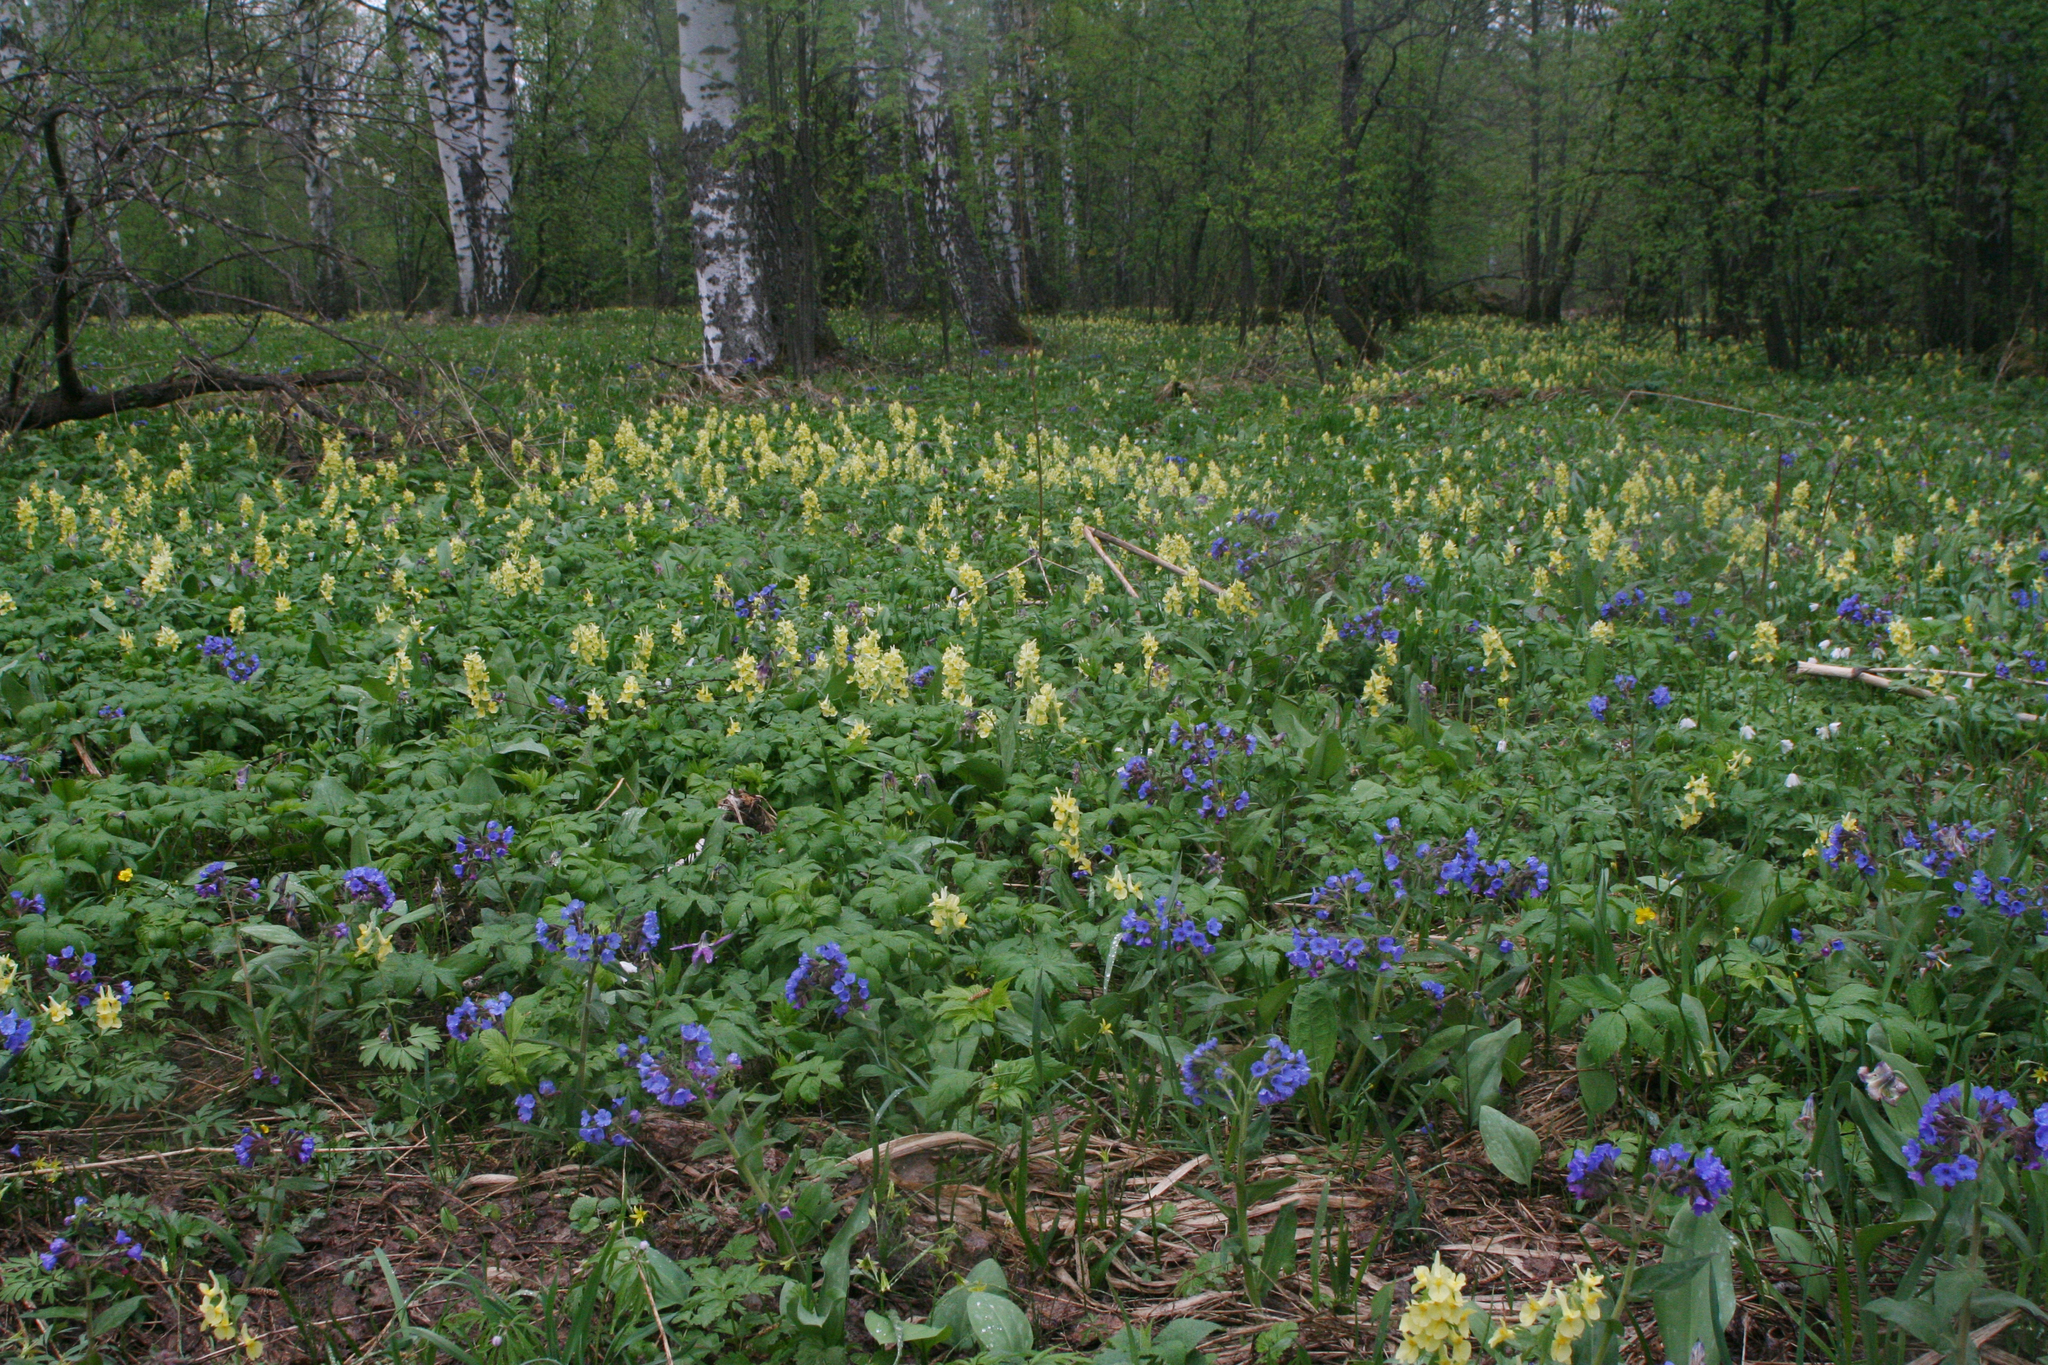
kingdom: Plantae
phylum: Tracheophyta
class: Magnoliopsida
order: Boraginales
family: Boraginaceae
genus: Pulmonaria
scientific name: Pulmonaria mollis
